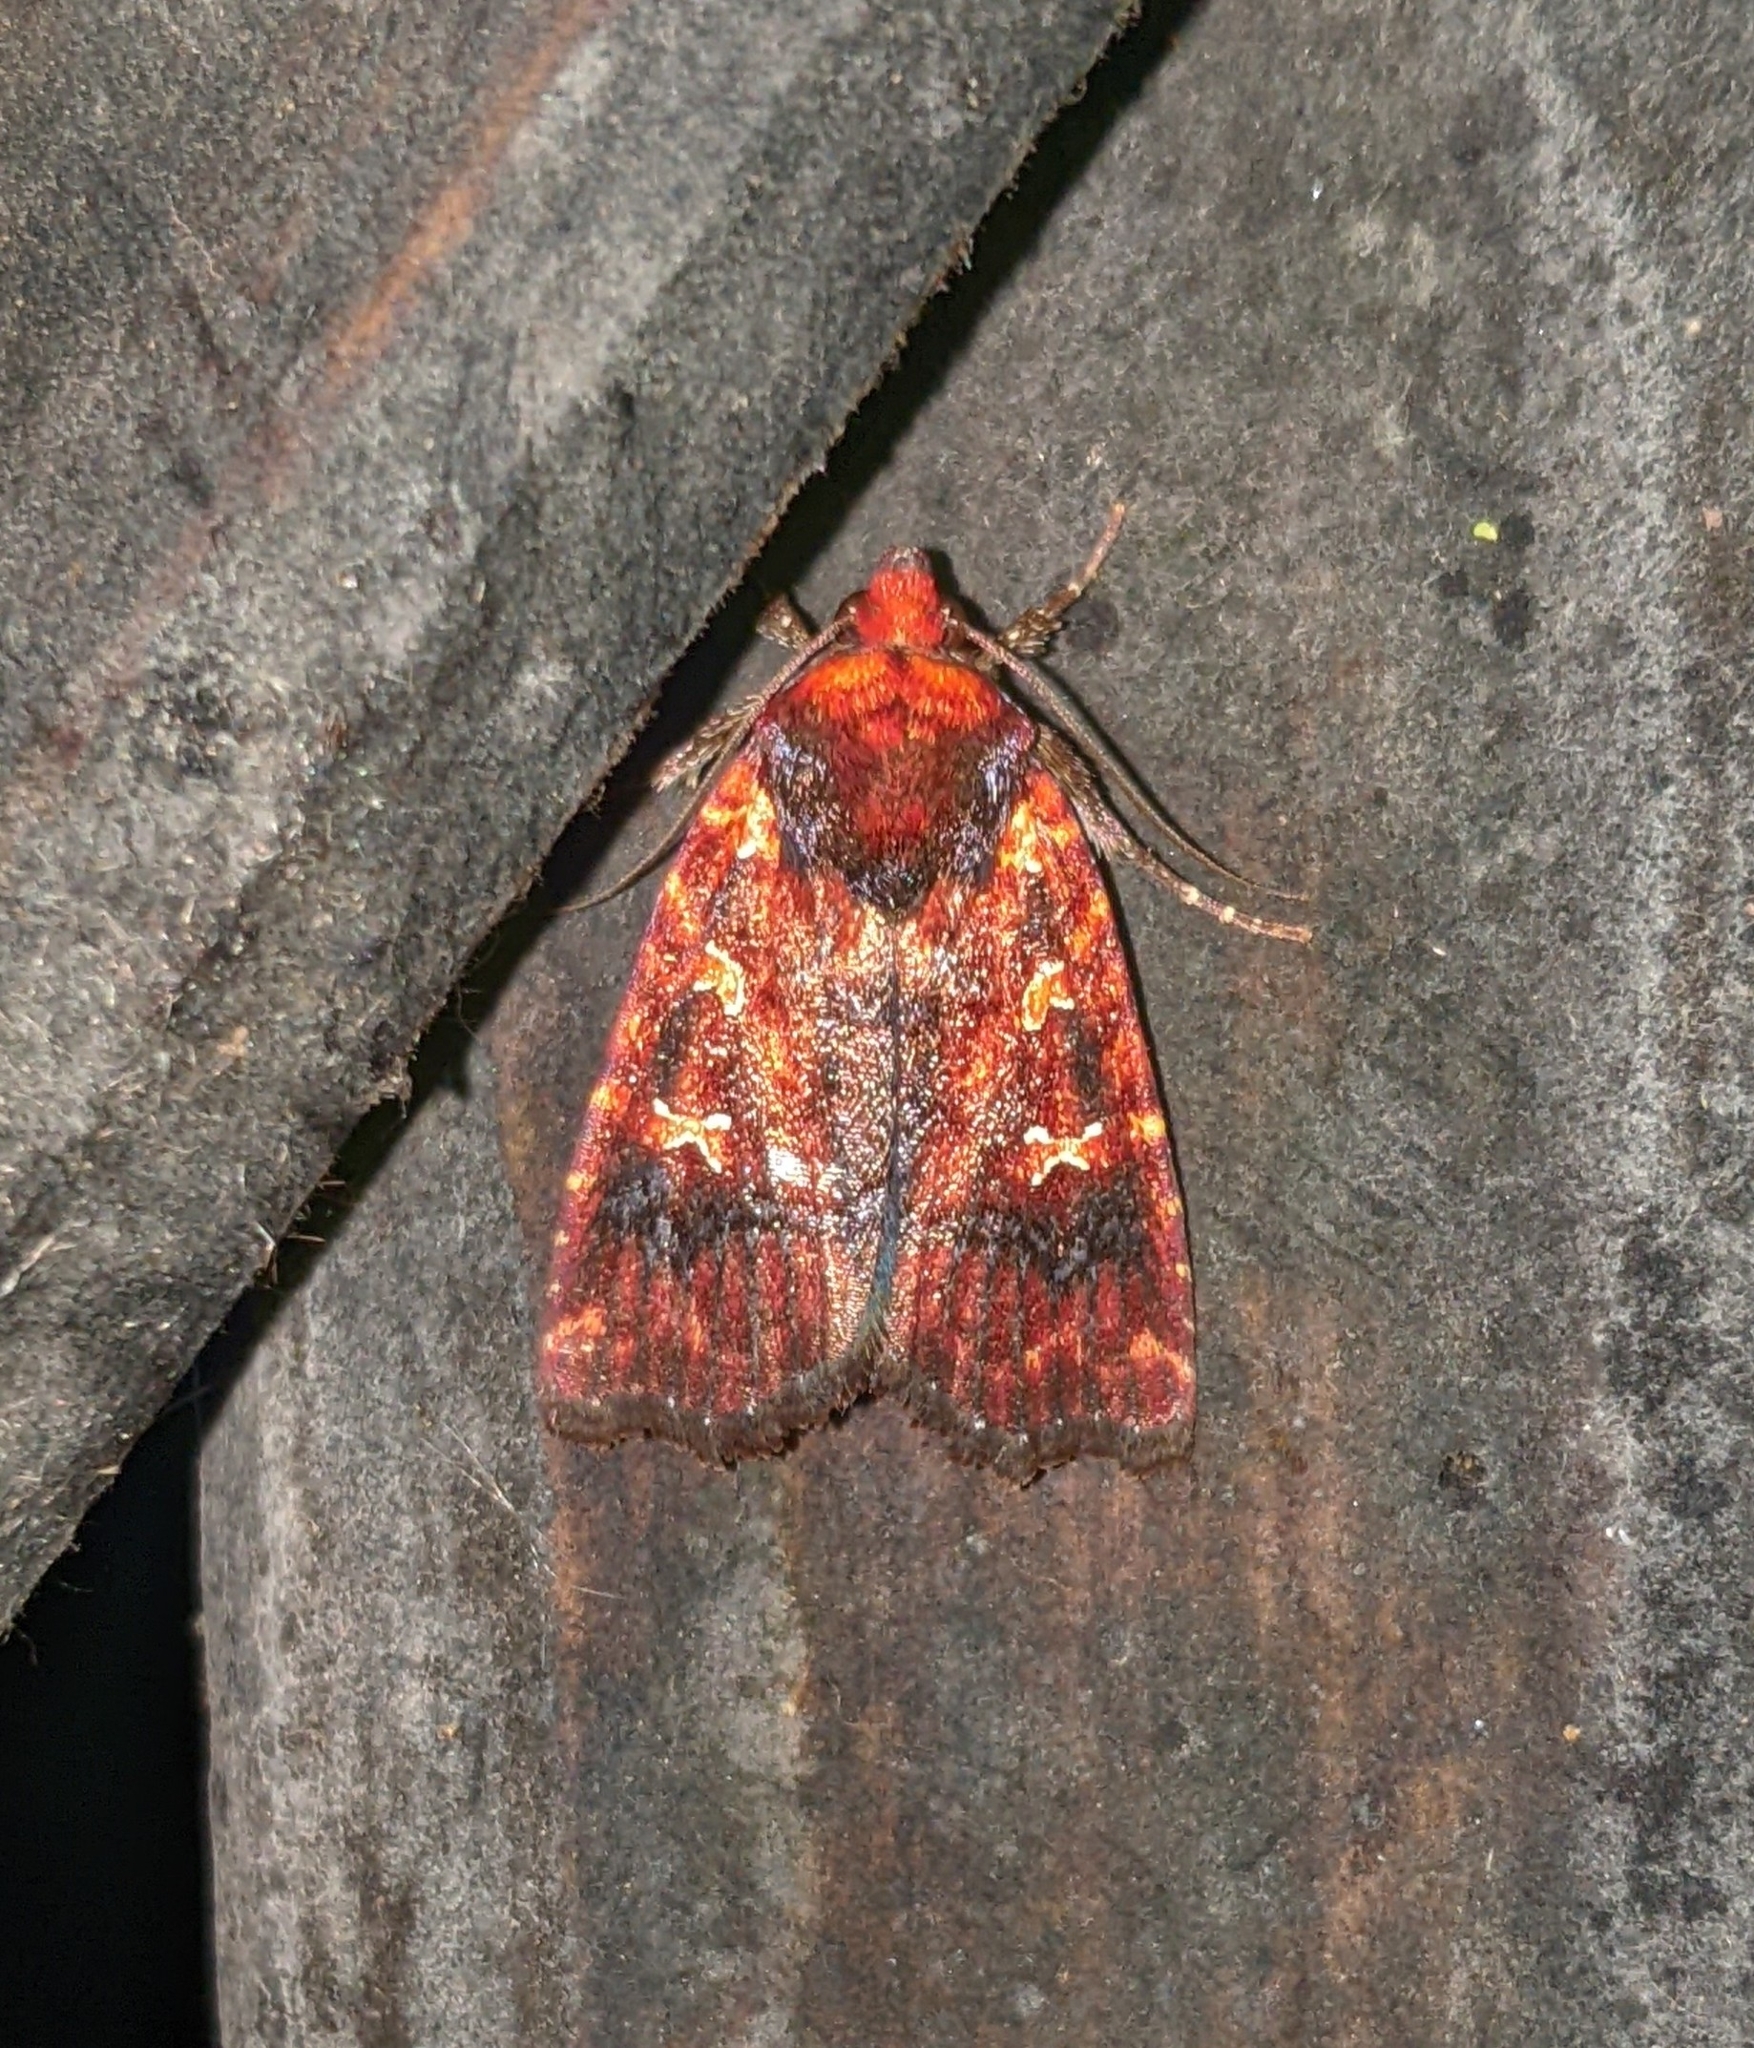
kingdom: Animalia
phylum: Arthropoda
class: Insecta
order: Lepidoptera
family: Noctuidae
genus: Perigea
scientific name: Perigea
